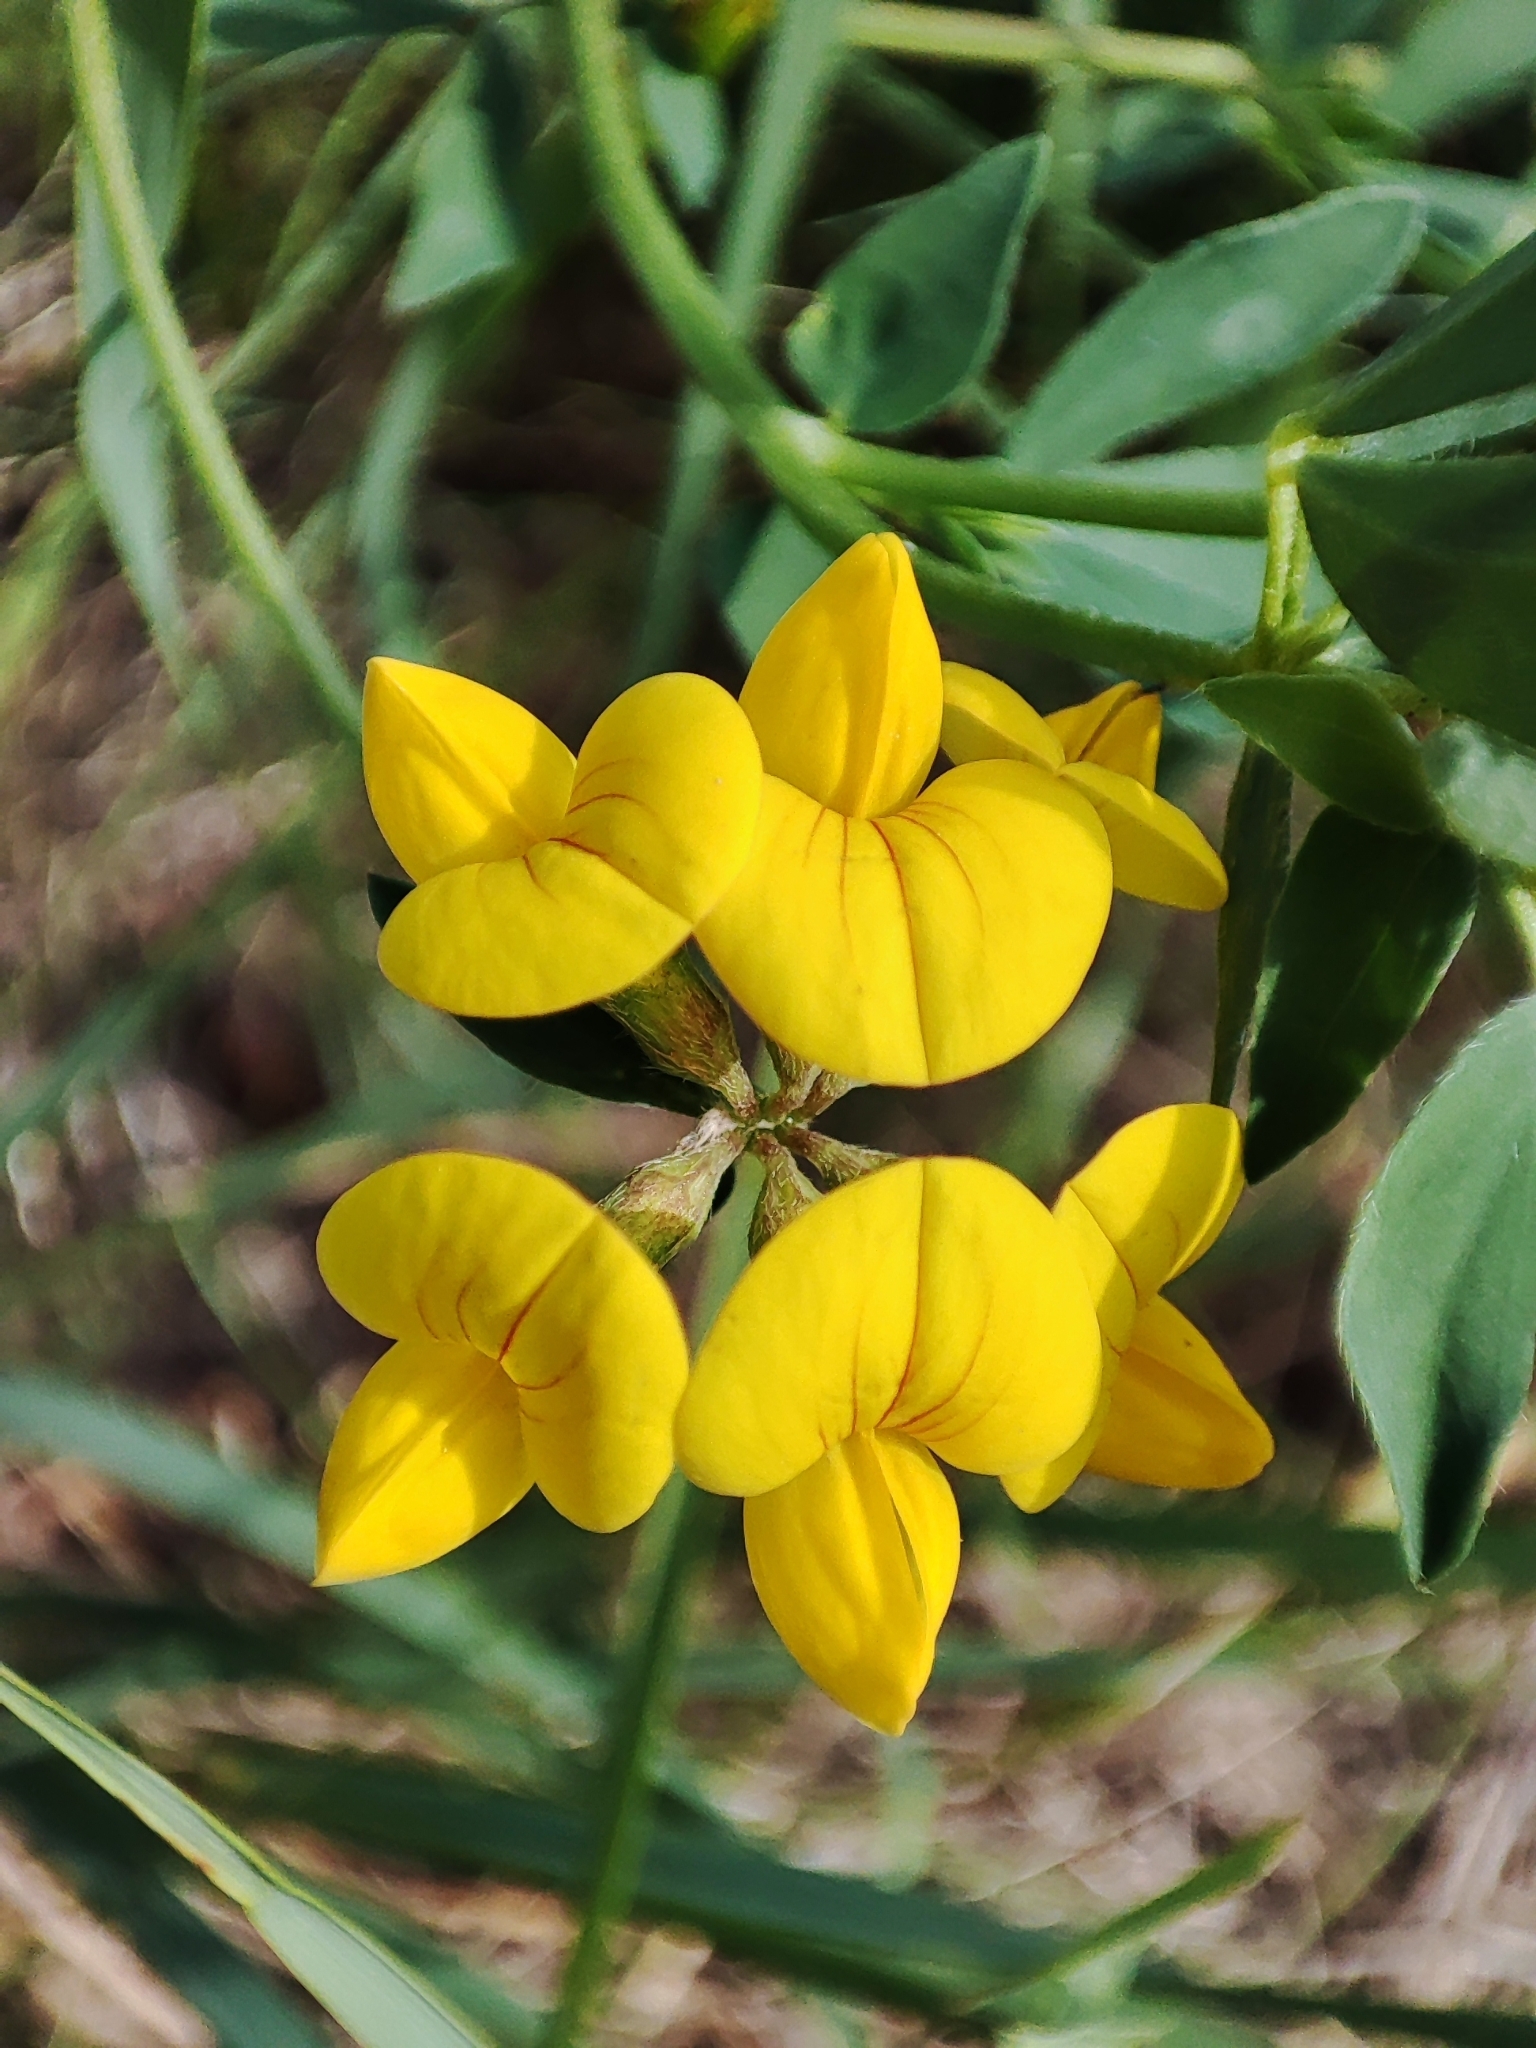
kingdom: Plantae
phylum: Tracheophyta
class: Magnoliopsida
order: Fabales
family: Fabaceae
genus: Lotus
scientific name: Lotus corniculatus
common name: Common bird's-foot-trefoil
